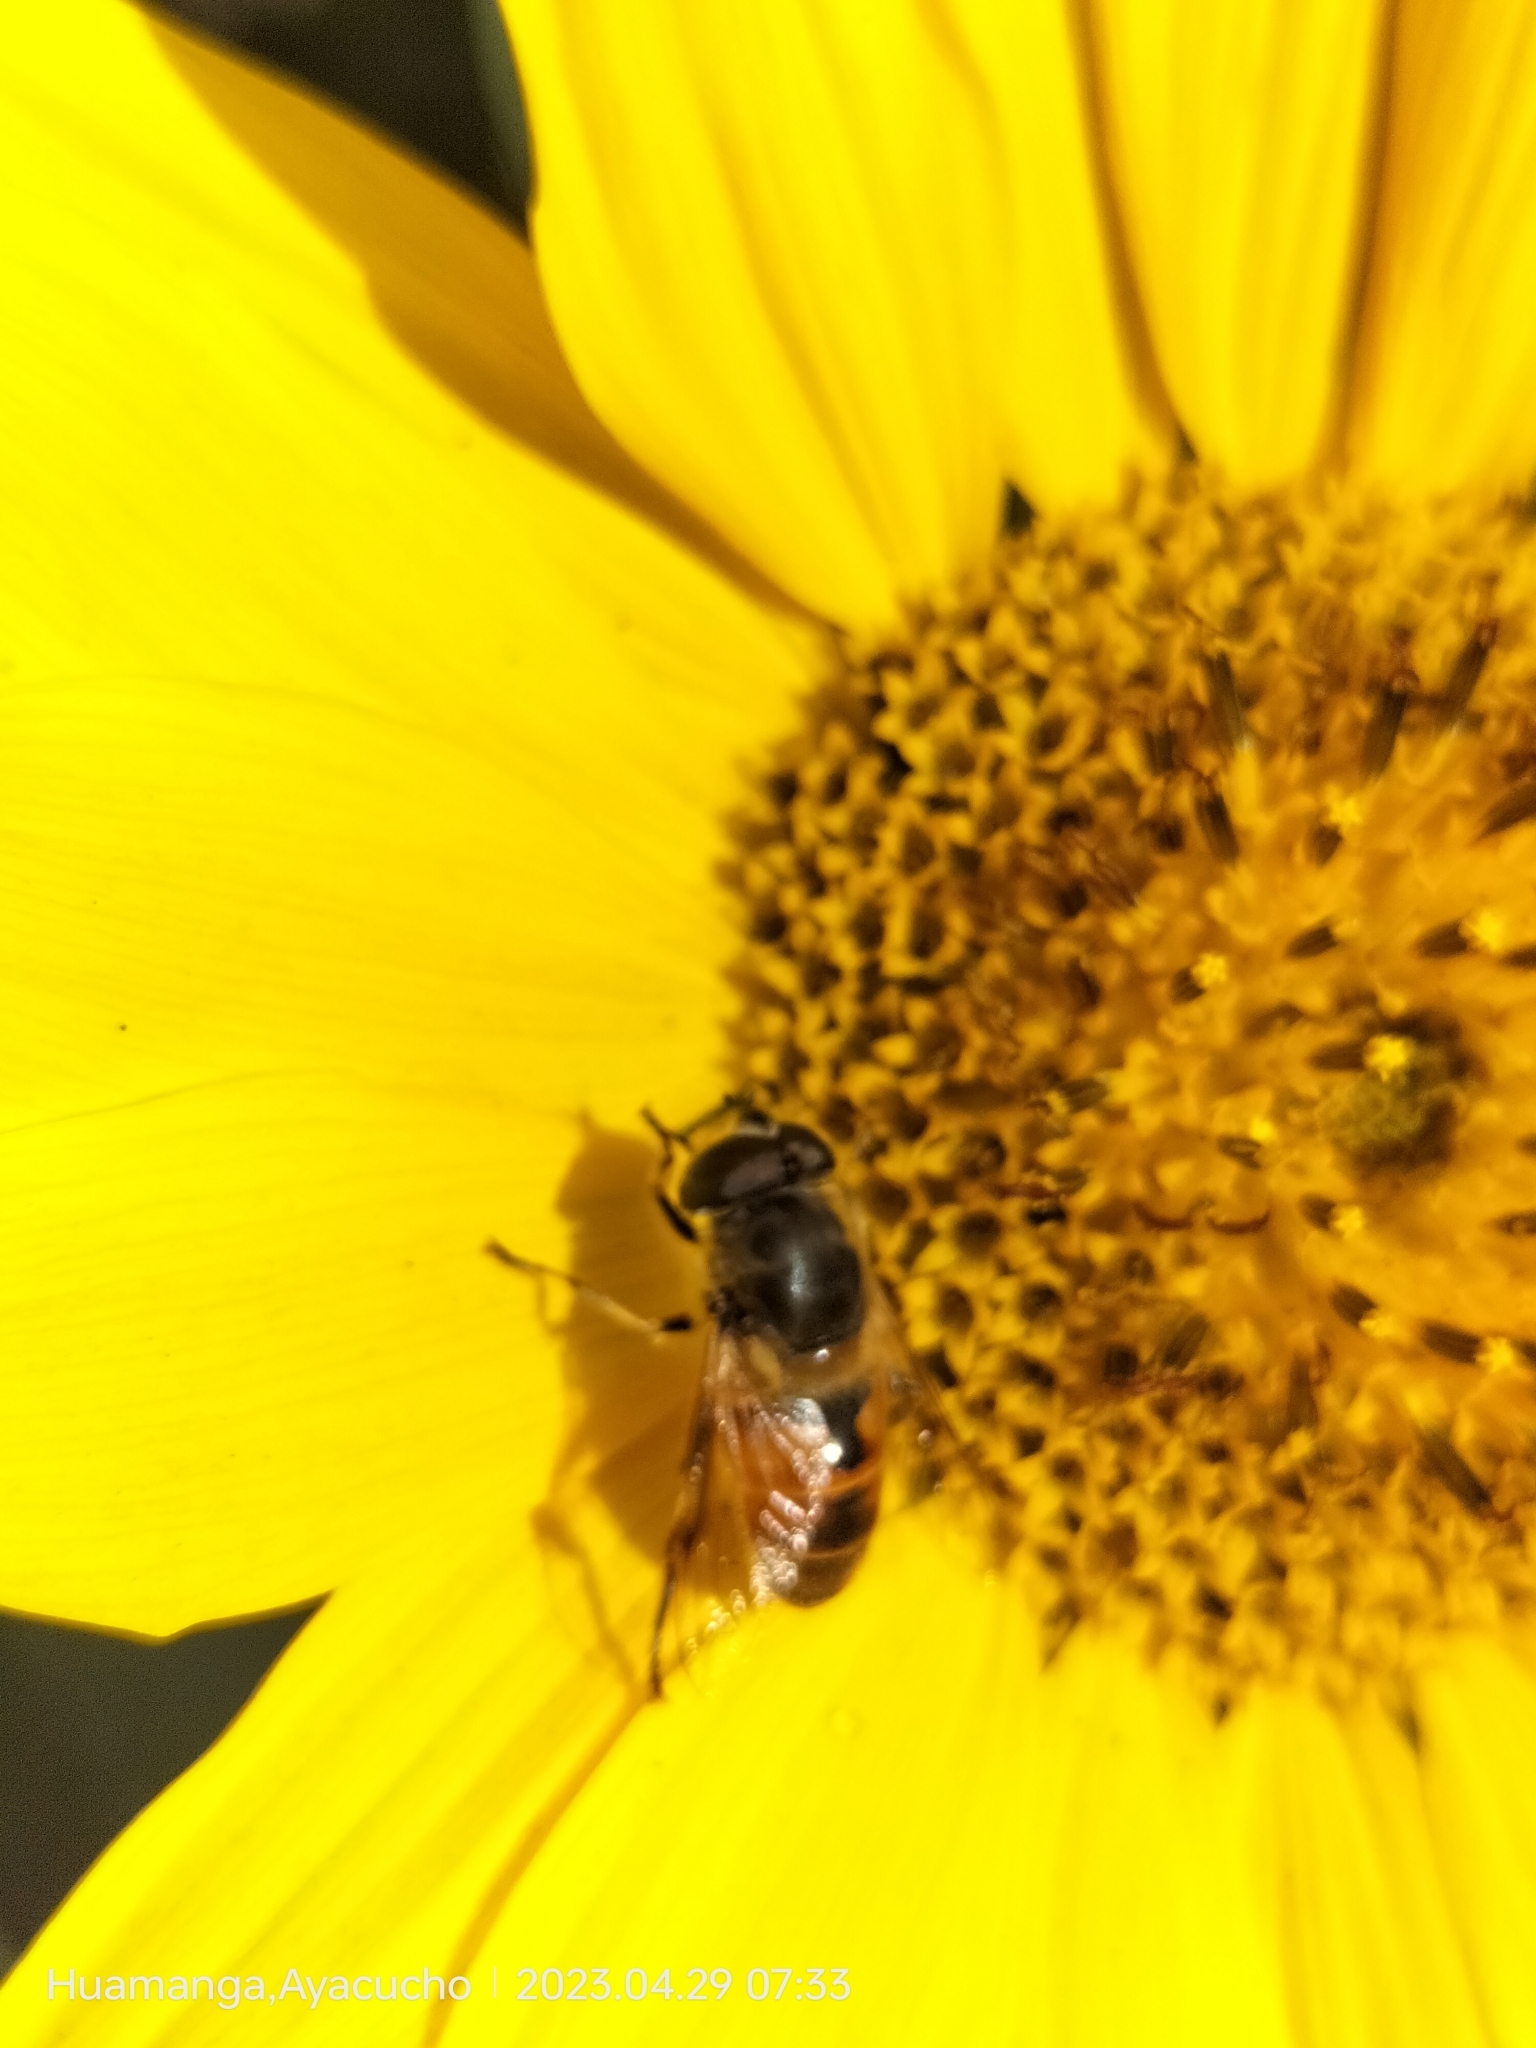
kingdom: Animalia
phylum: Arthropoda
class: Insecta
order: Diptera
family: Syrphidae
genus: Eristalis
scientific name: Eristalis tenax
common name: Drone fly
